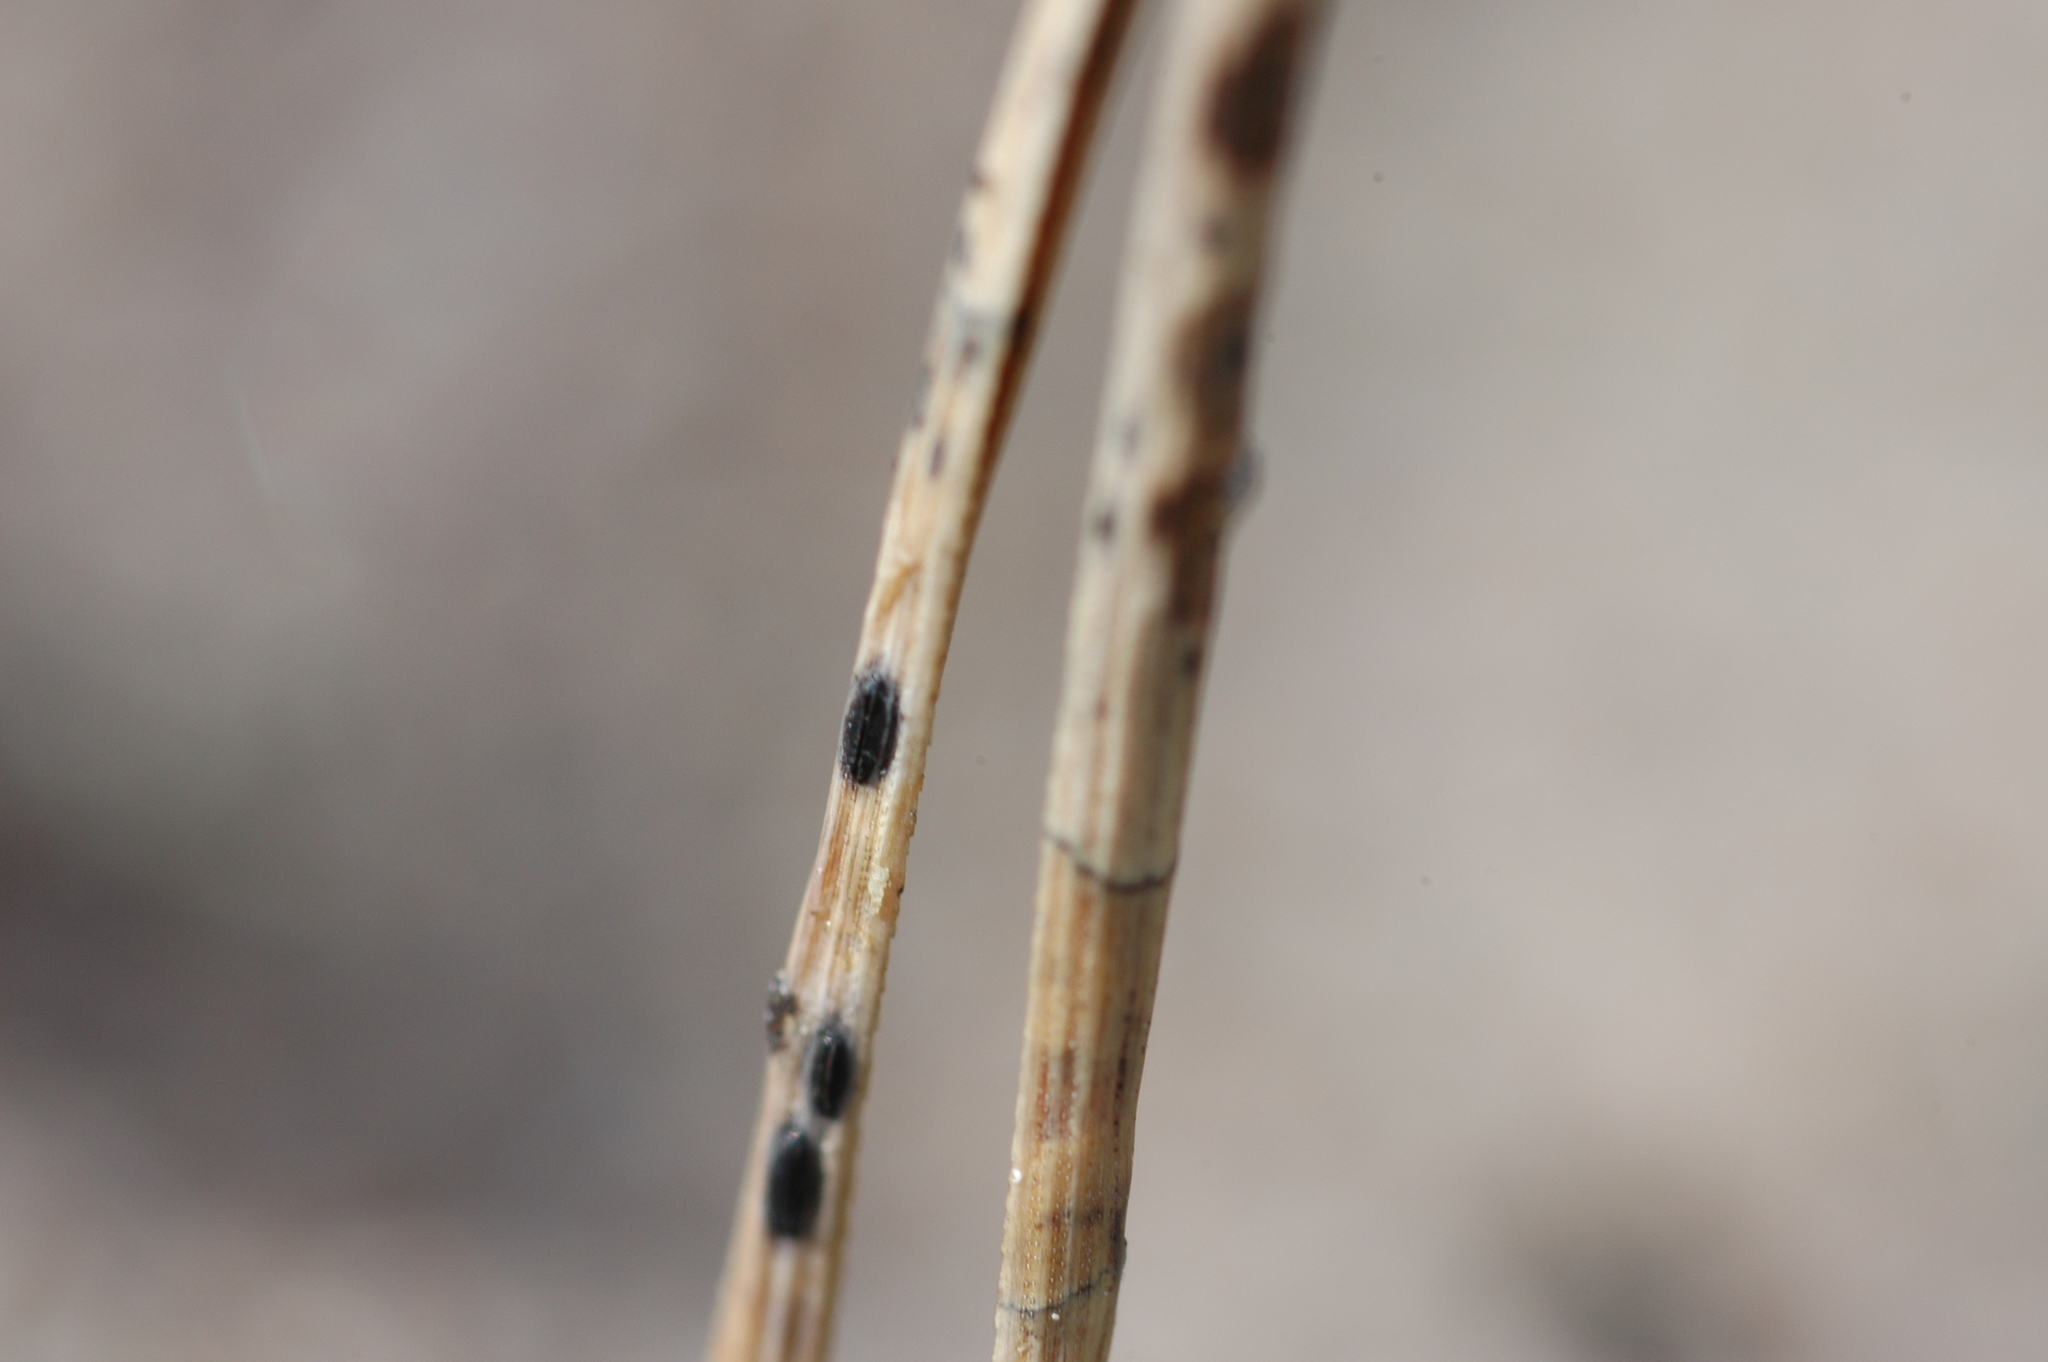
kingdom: Fungi
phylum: Ascomycota
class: Leotiomycetes
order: Rhytismatales
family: Rhytismataceae
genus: Lophodermium
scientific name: Lophodermium pinastri
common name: Pine needle split
